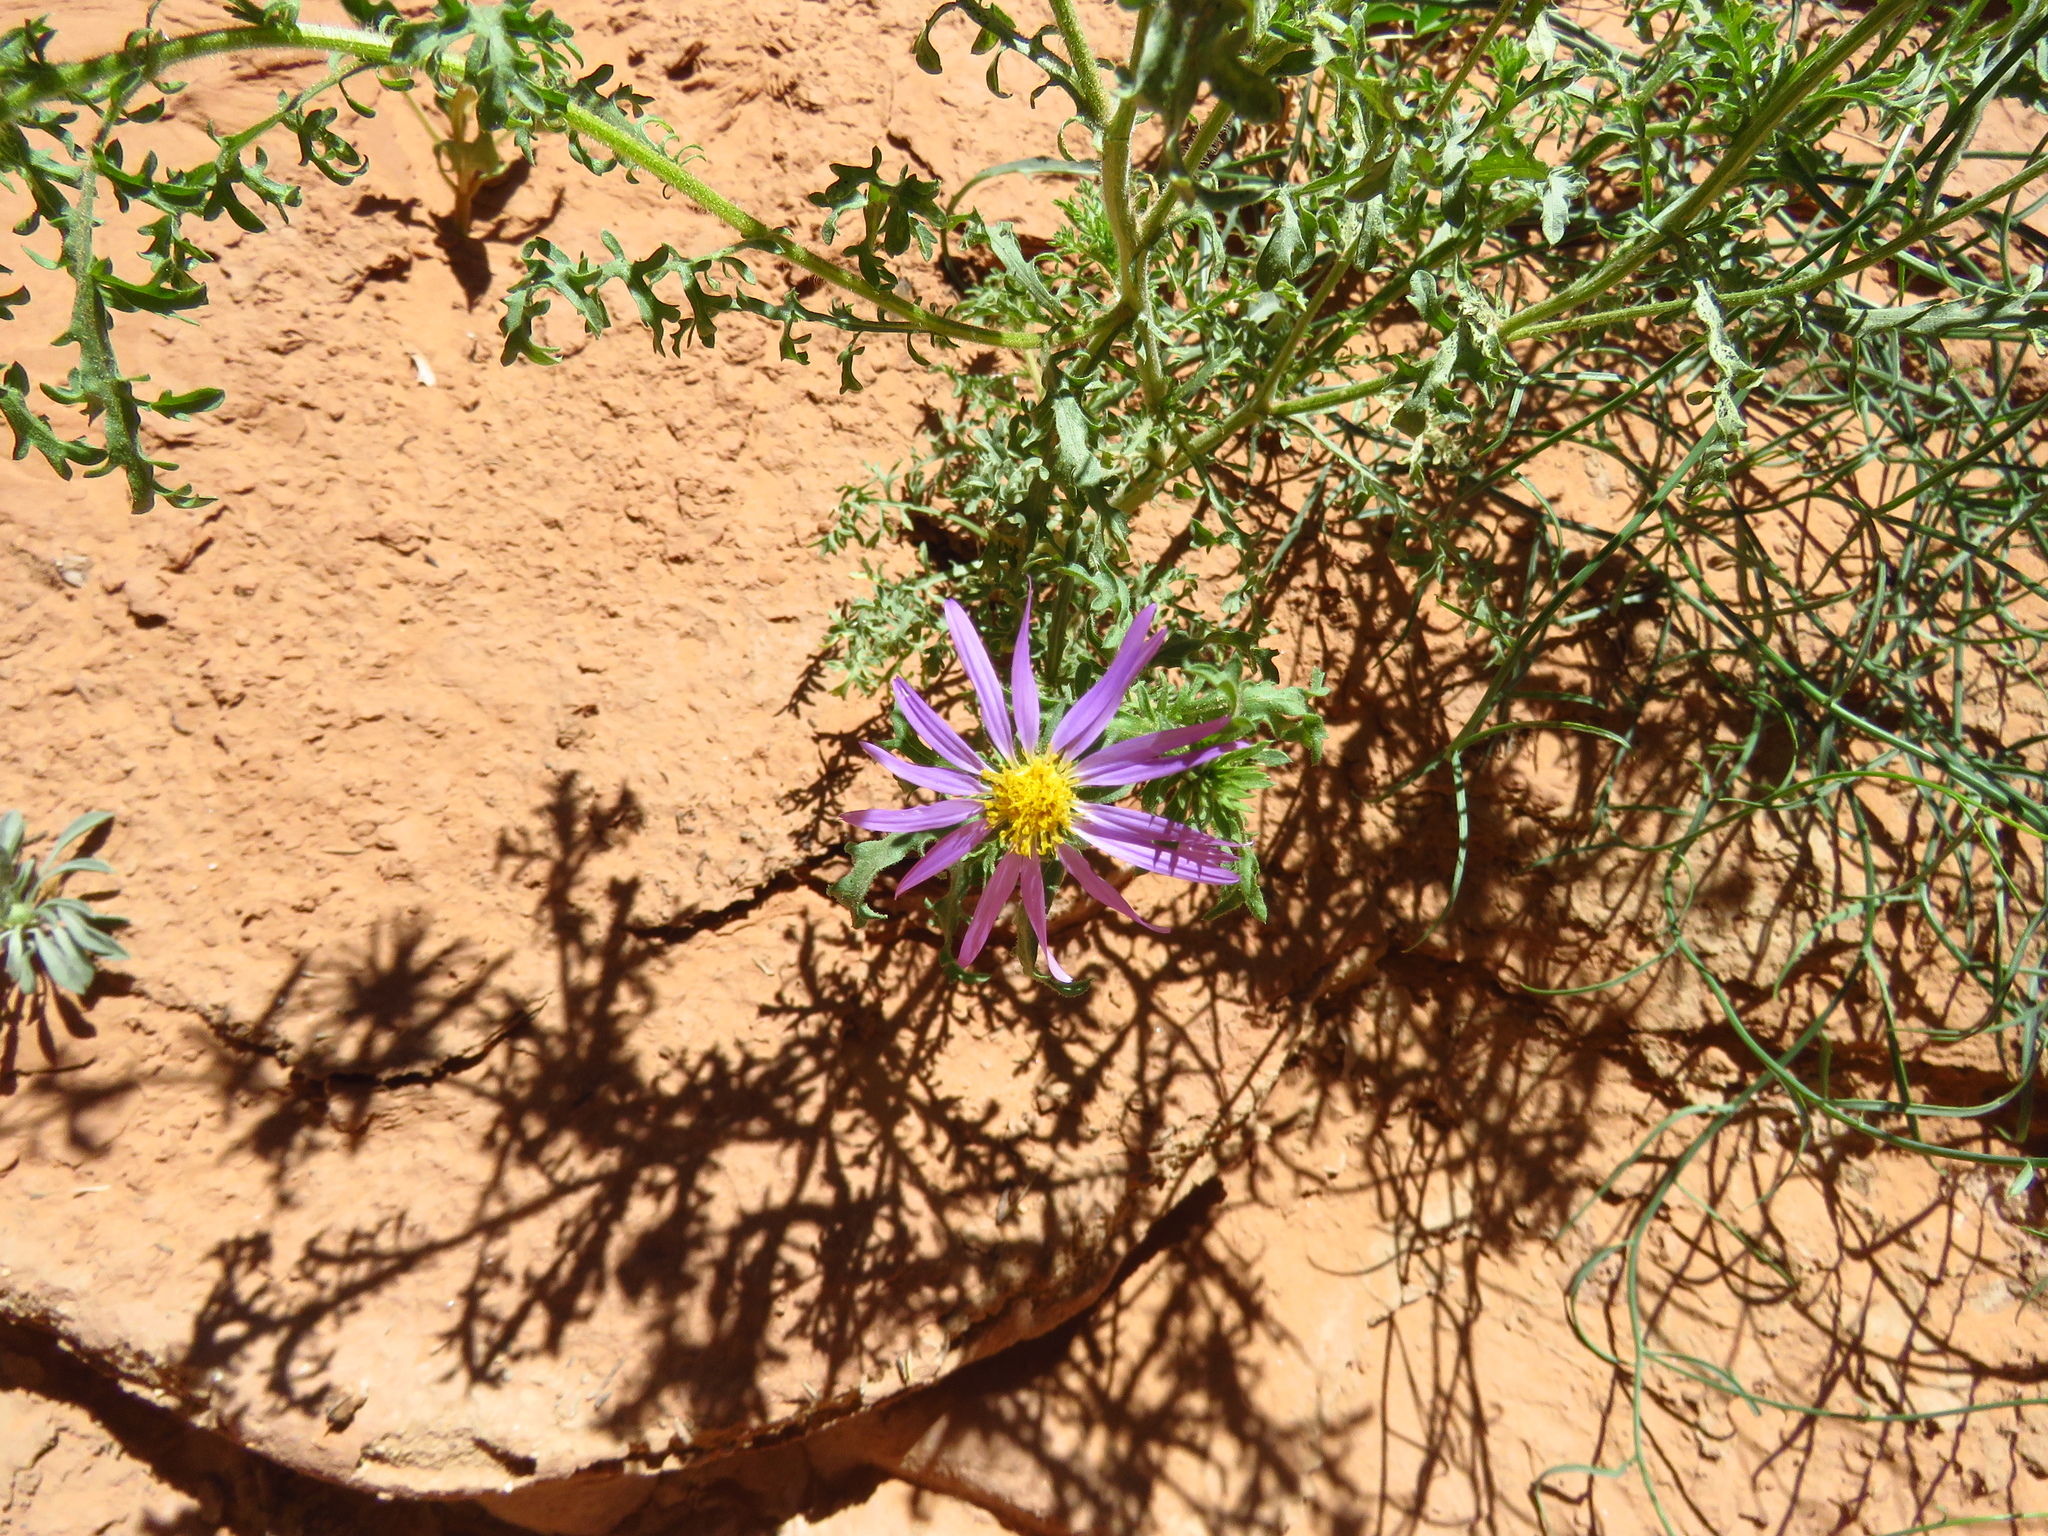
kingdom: Plantae
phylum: Tracheophyta
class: Magnoliopsida
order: Asterales
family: Asteraceae
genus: Machaeranthera
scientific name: Machaeranthera tanacetifolia
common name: Tansy-aster
